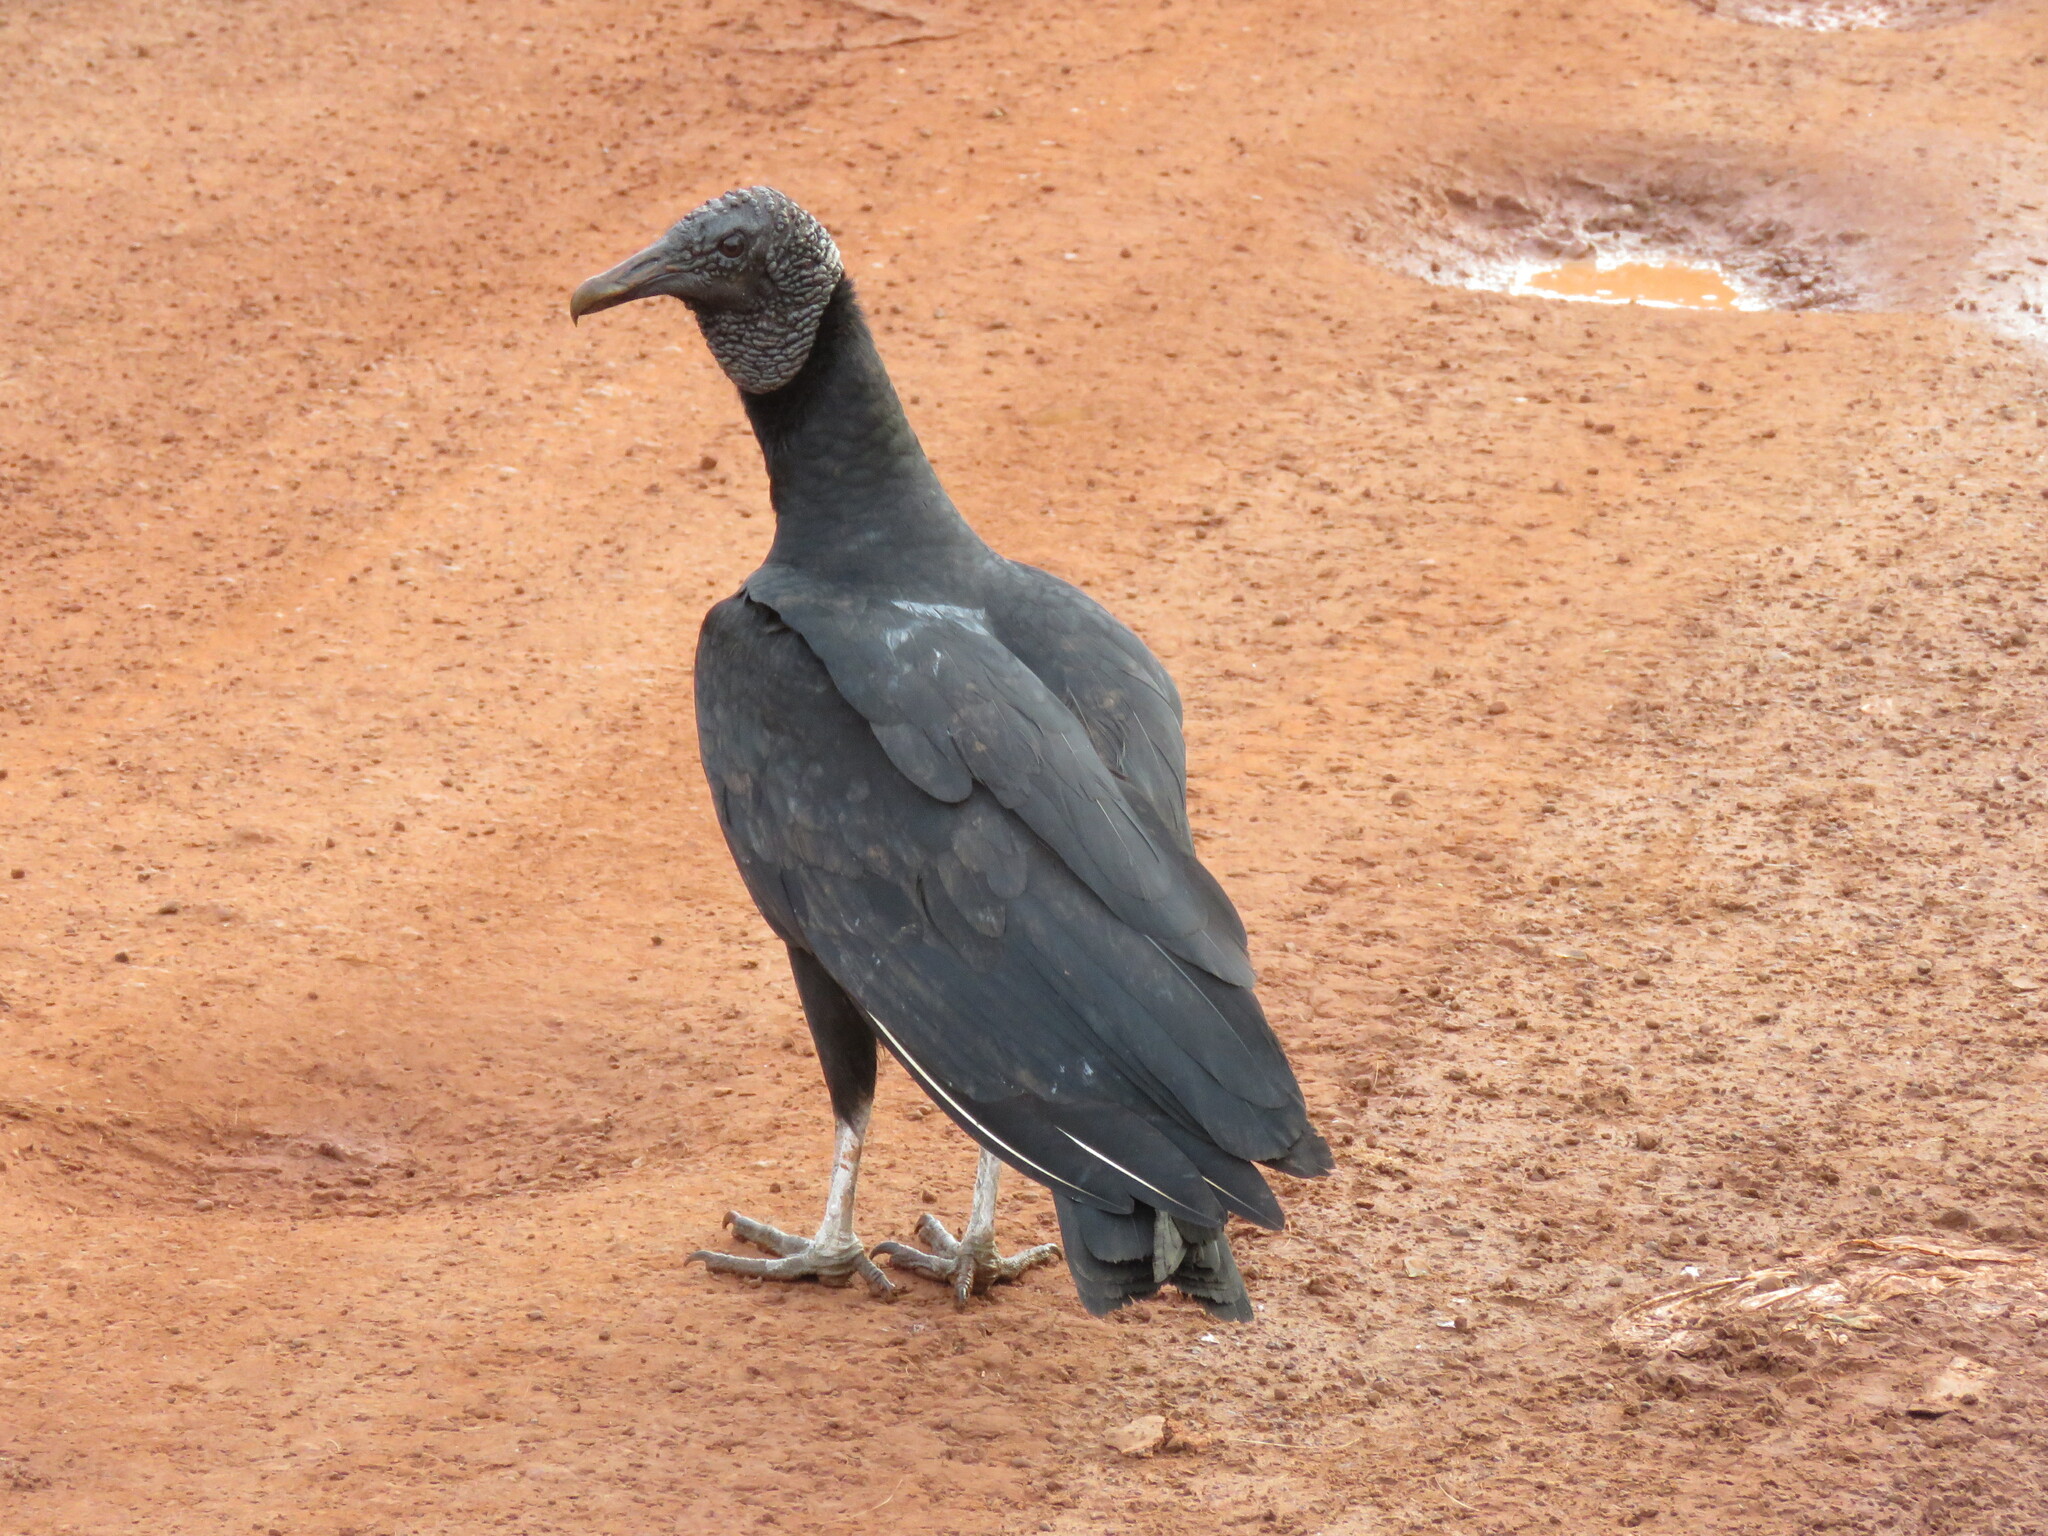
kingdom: Animalia
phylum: Chordata
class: Aves
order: Accipitriformes
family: Cathartidae
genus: Coragyps
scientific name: Coragyps atratus
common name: Black vulture
